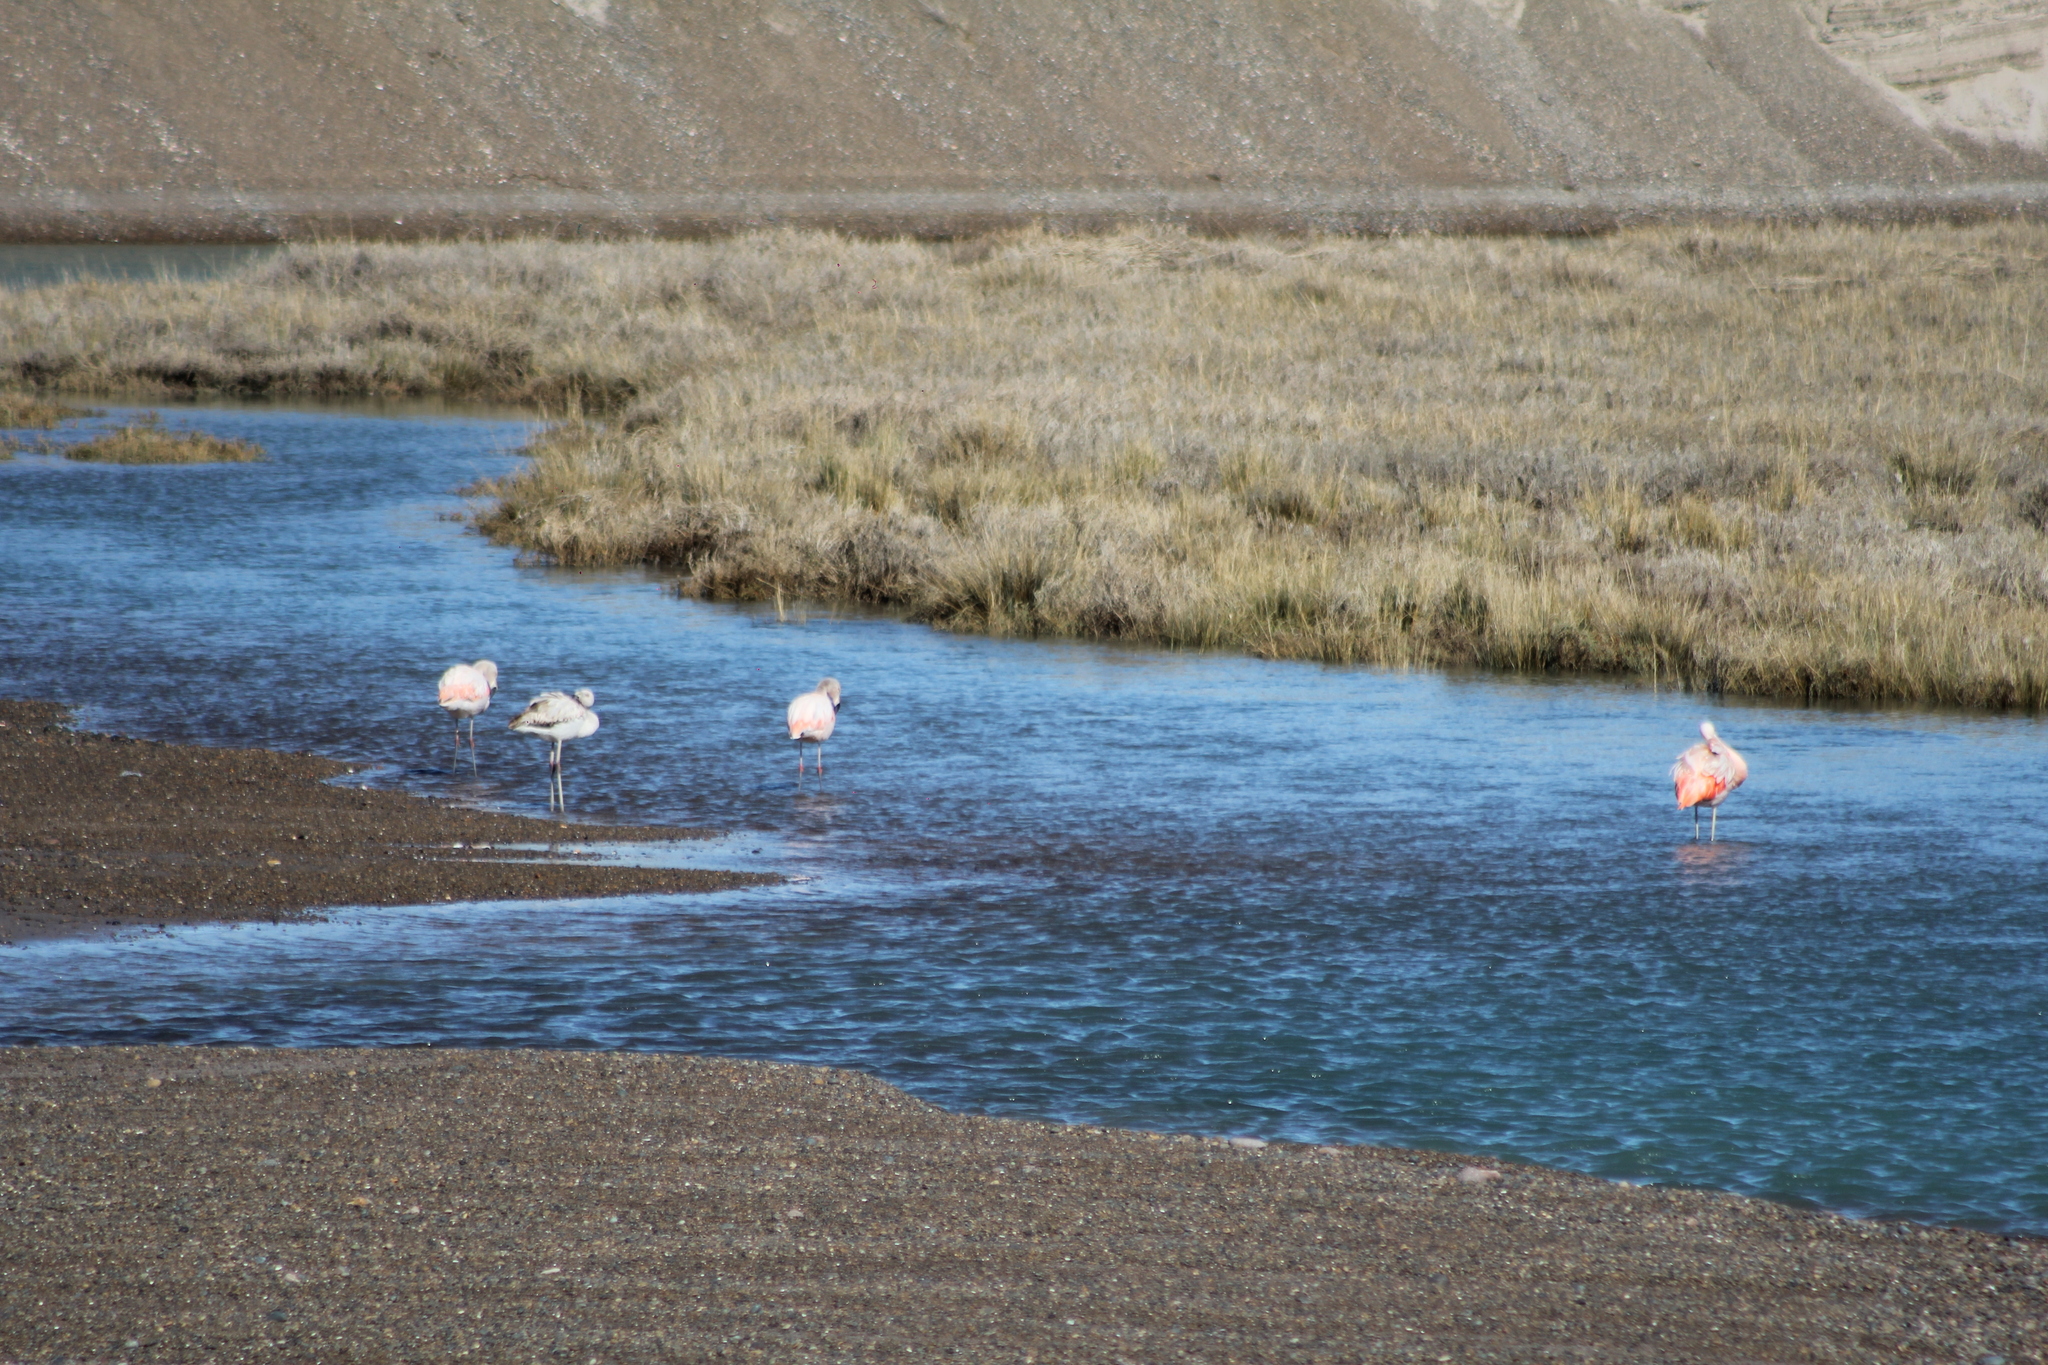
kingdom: Animalia
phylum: Chordata
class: Aves
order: Phoenicopteriformes
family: Phoenicopteridae
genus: Phoenicopterus
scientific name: Phoenicopterus chilensis
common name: Chilean flamingo
